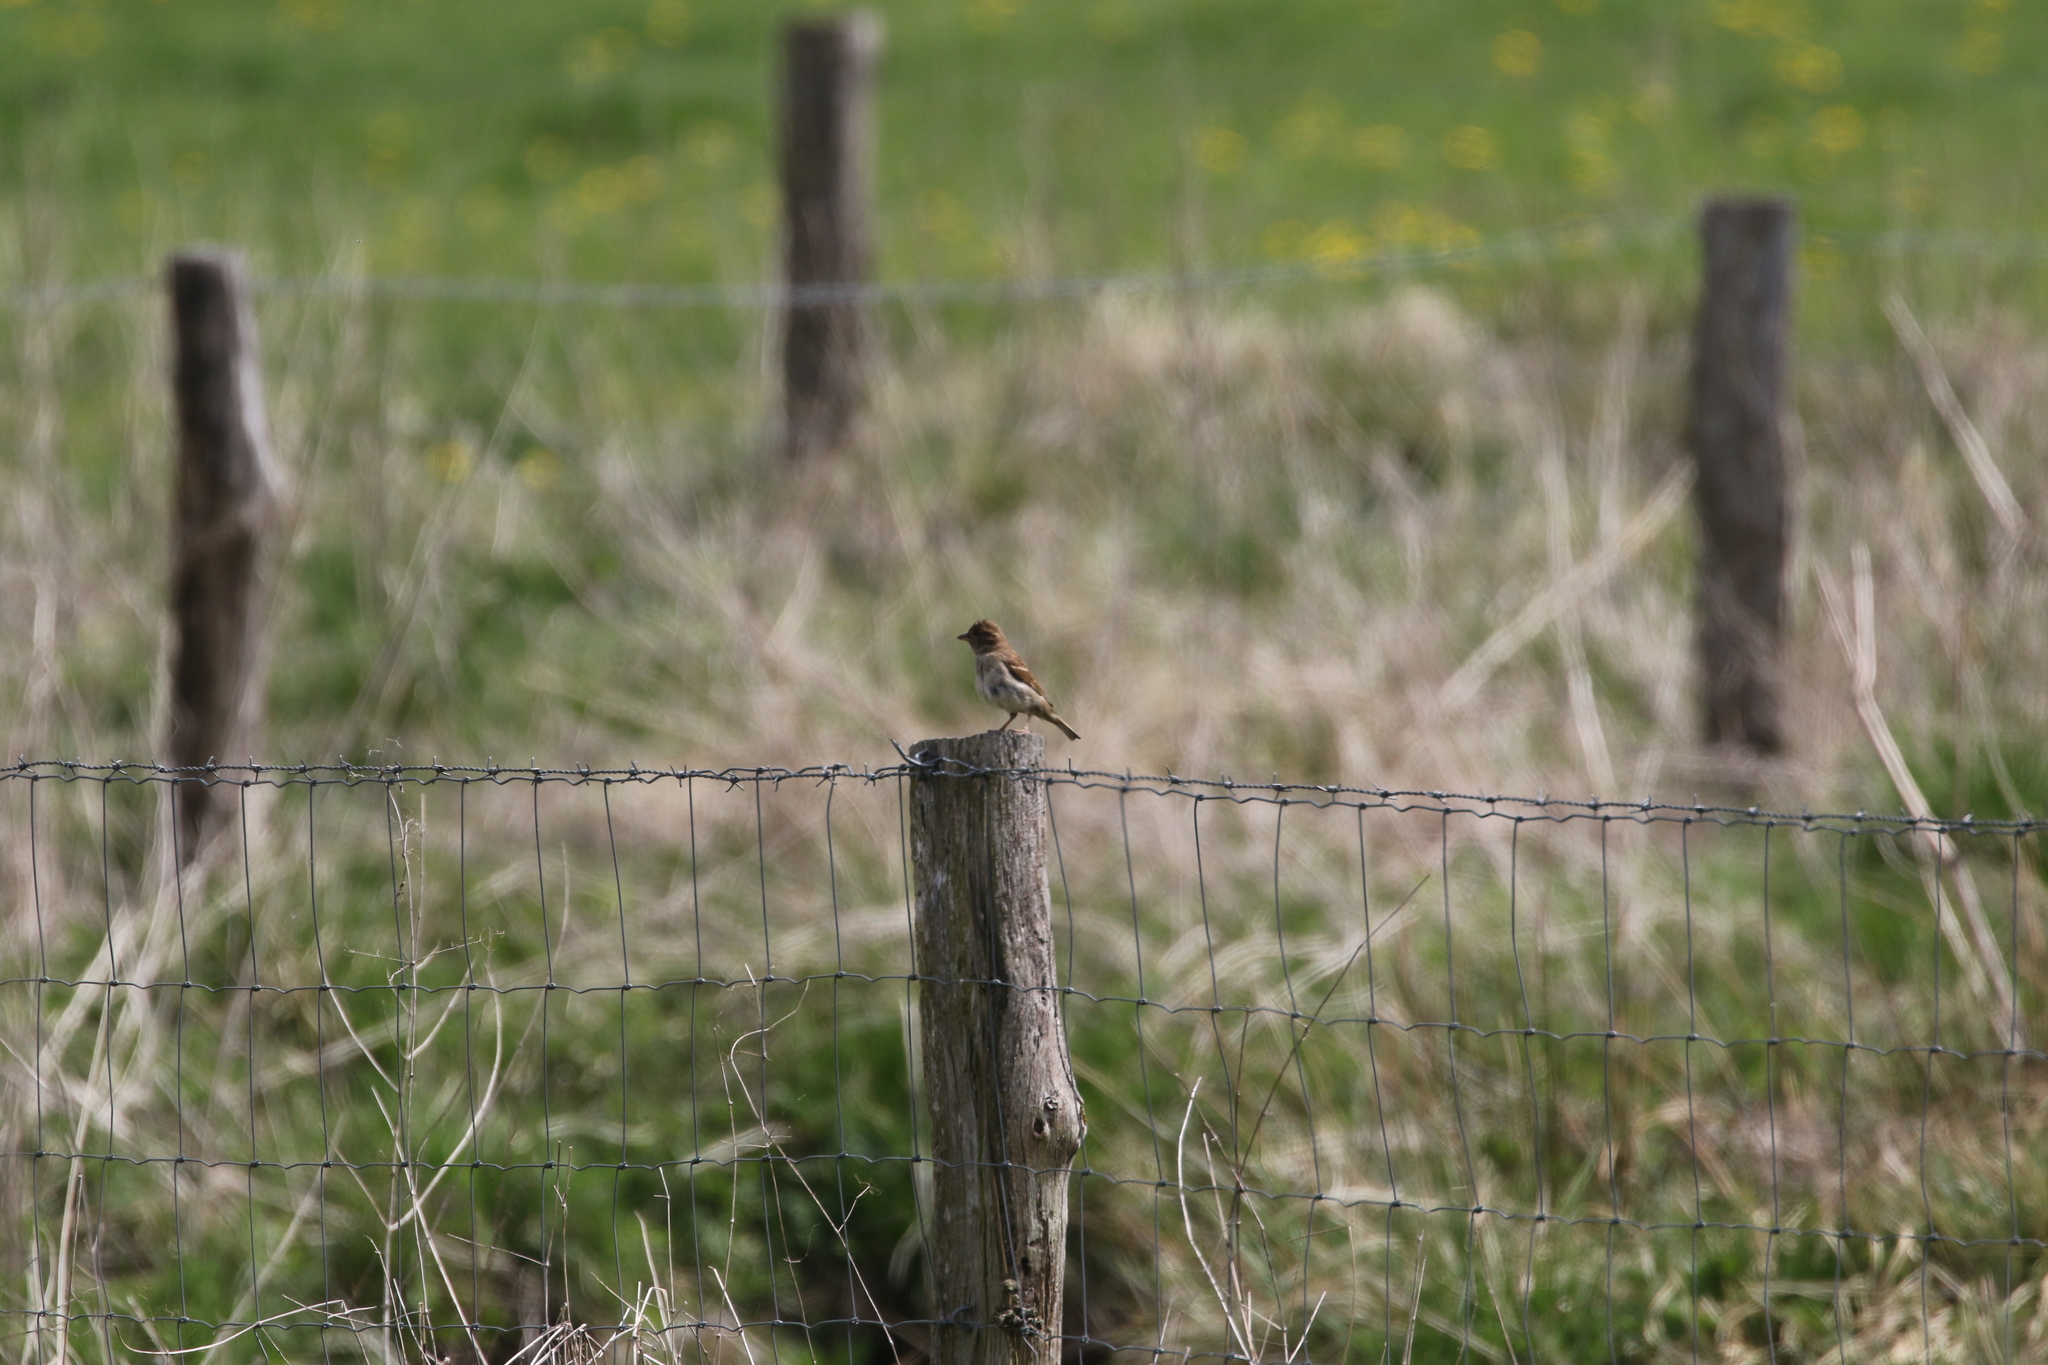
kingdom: Animalia
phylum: Chordata
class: Aves
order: Passeriformes
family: Passeridae
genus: Passer
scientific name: Passer domesticus
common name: House sparrow
